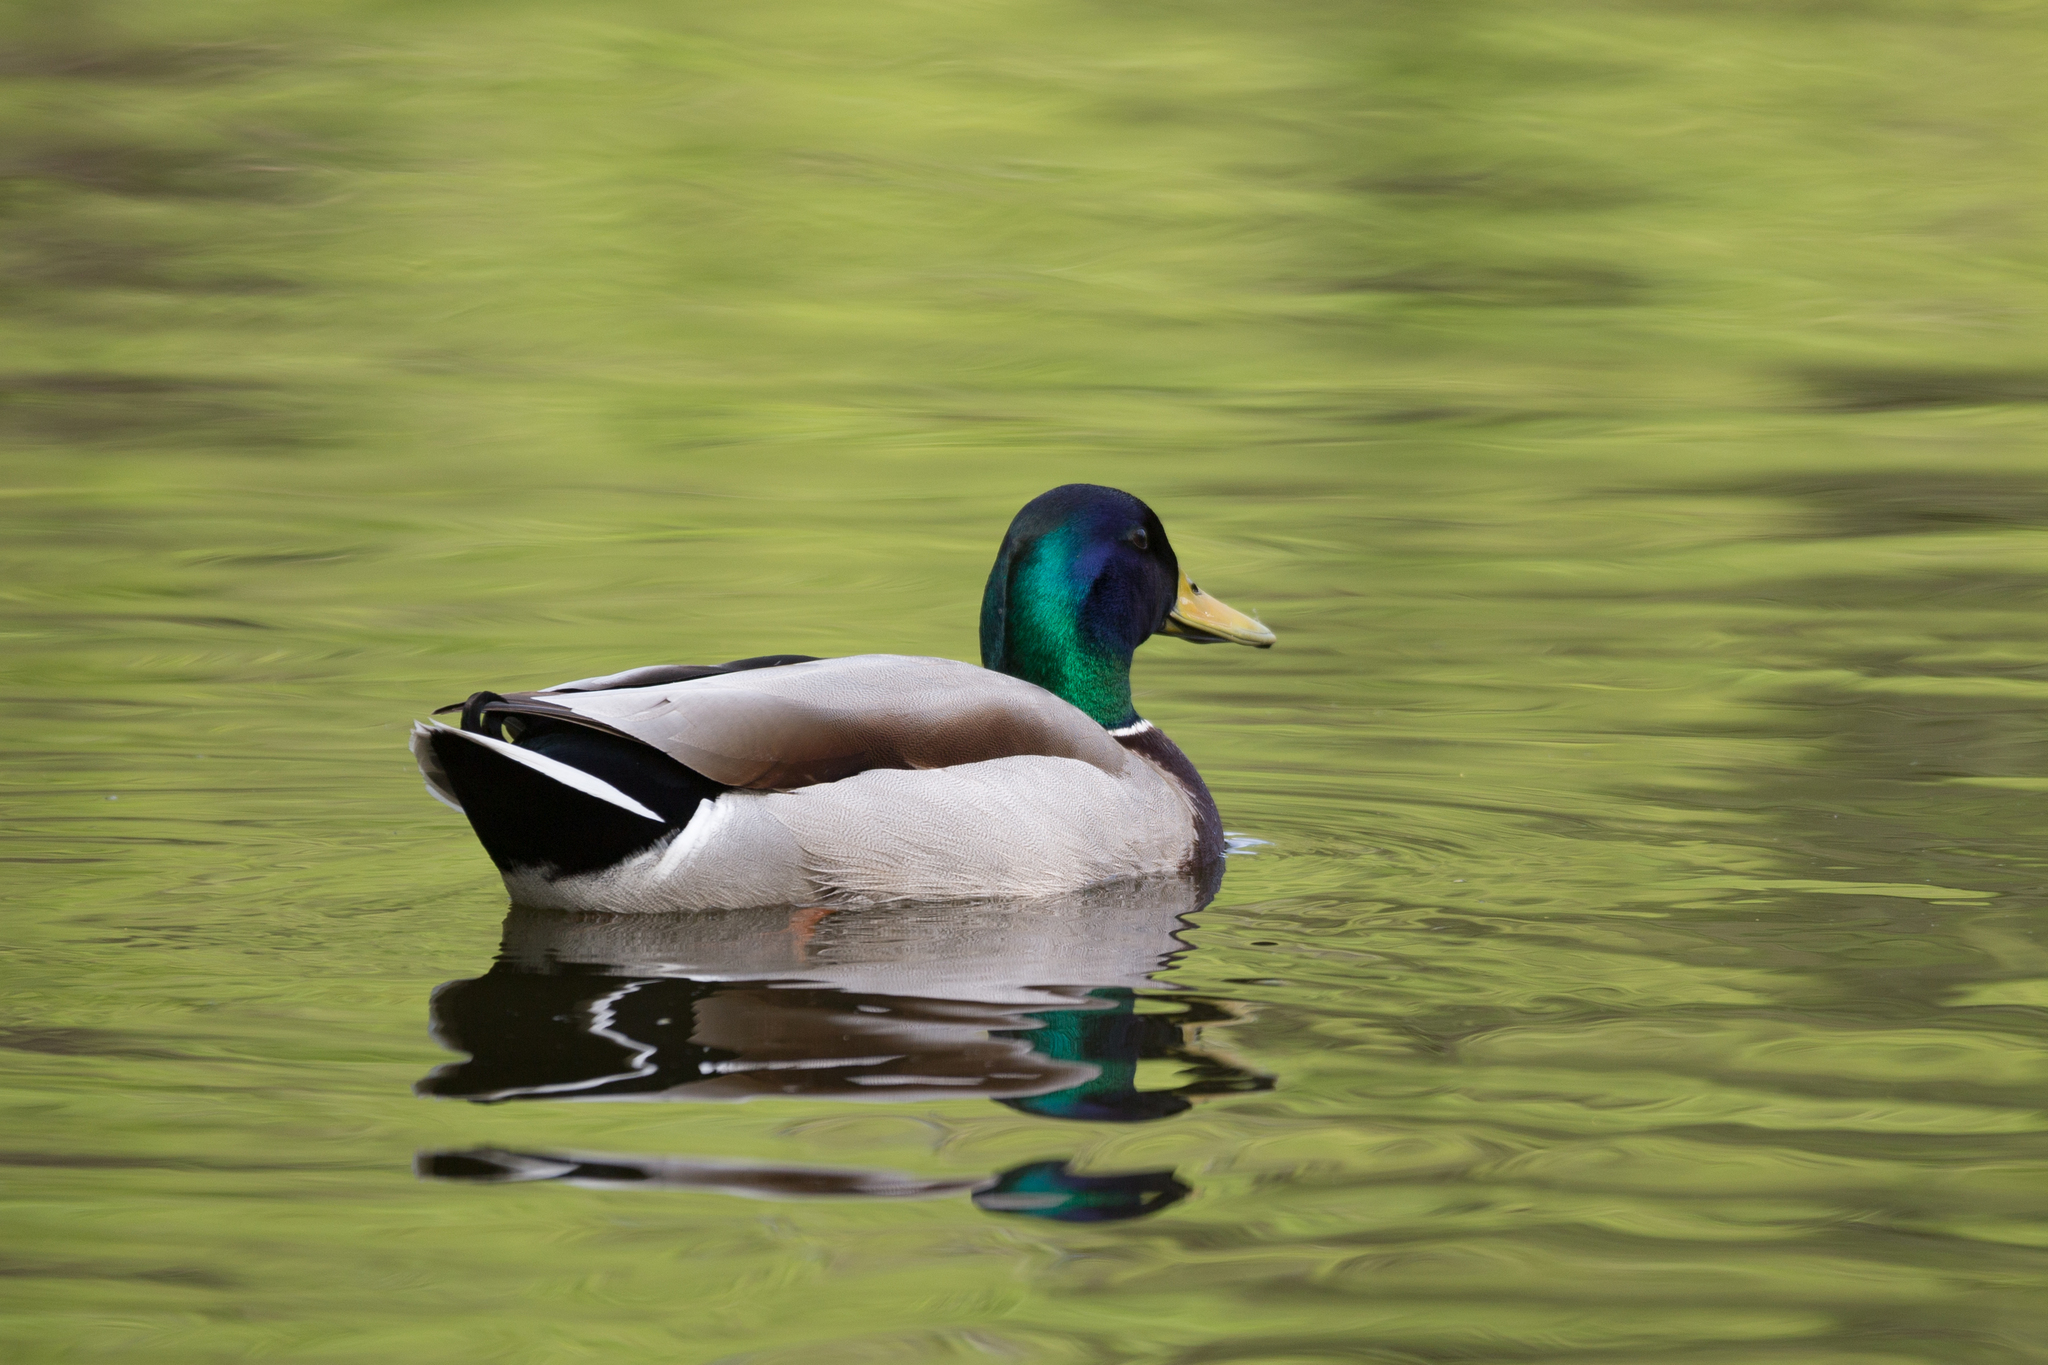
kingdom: Animalia
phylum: Chordata
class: Aves
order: Anseriformes
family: Anatidae
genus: Anas
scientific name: Anas platyrhynchos
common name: Mallard
